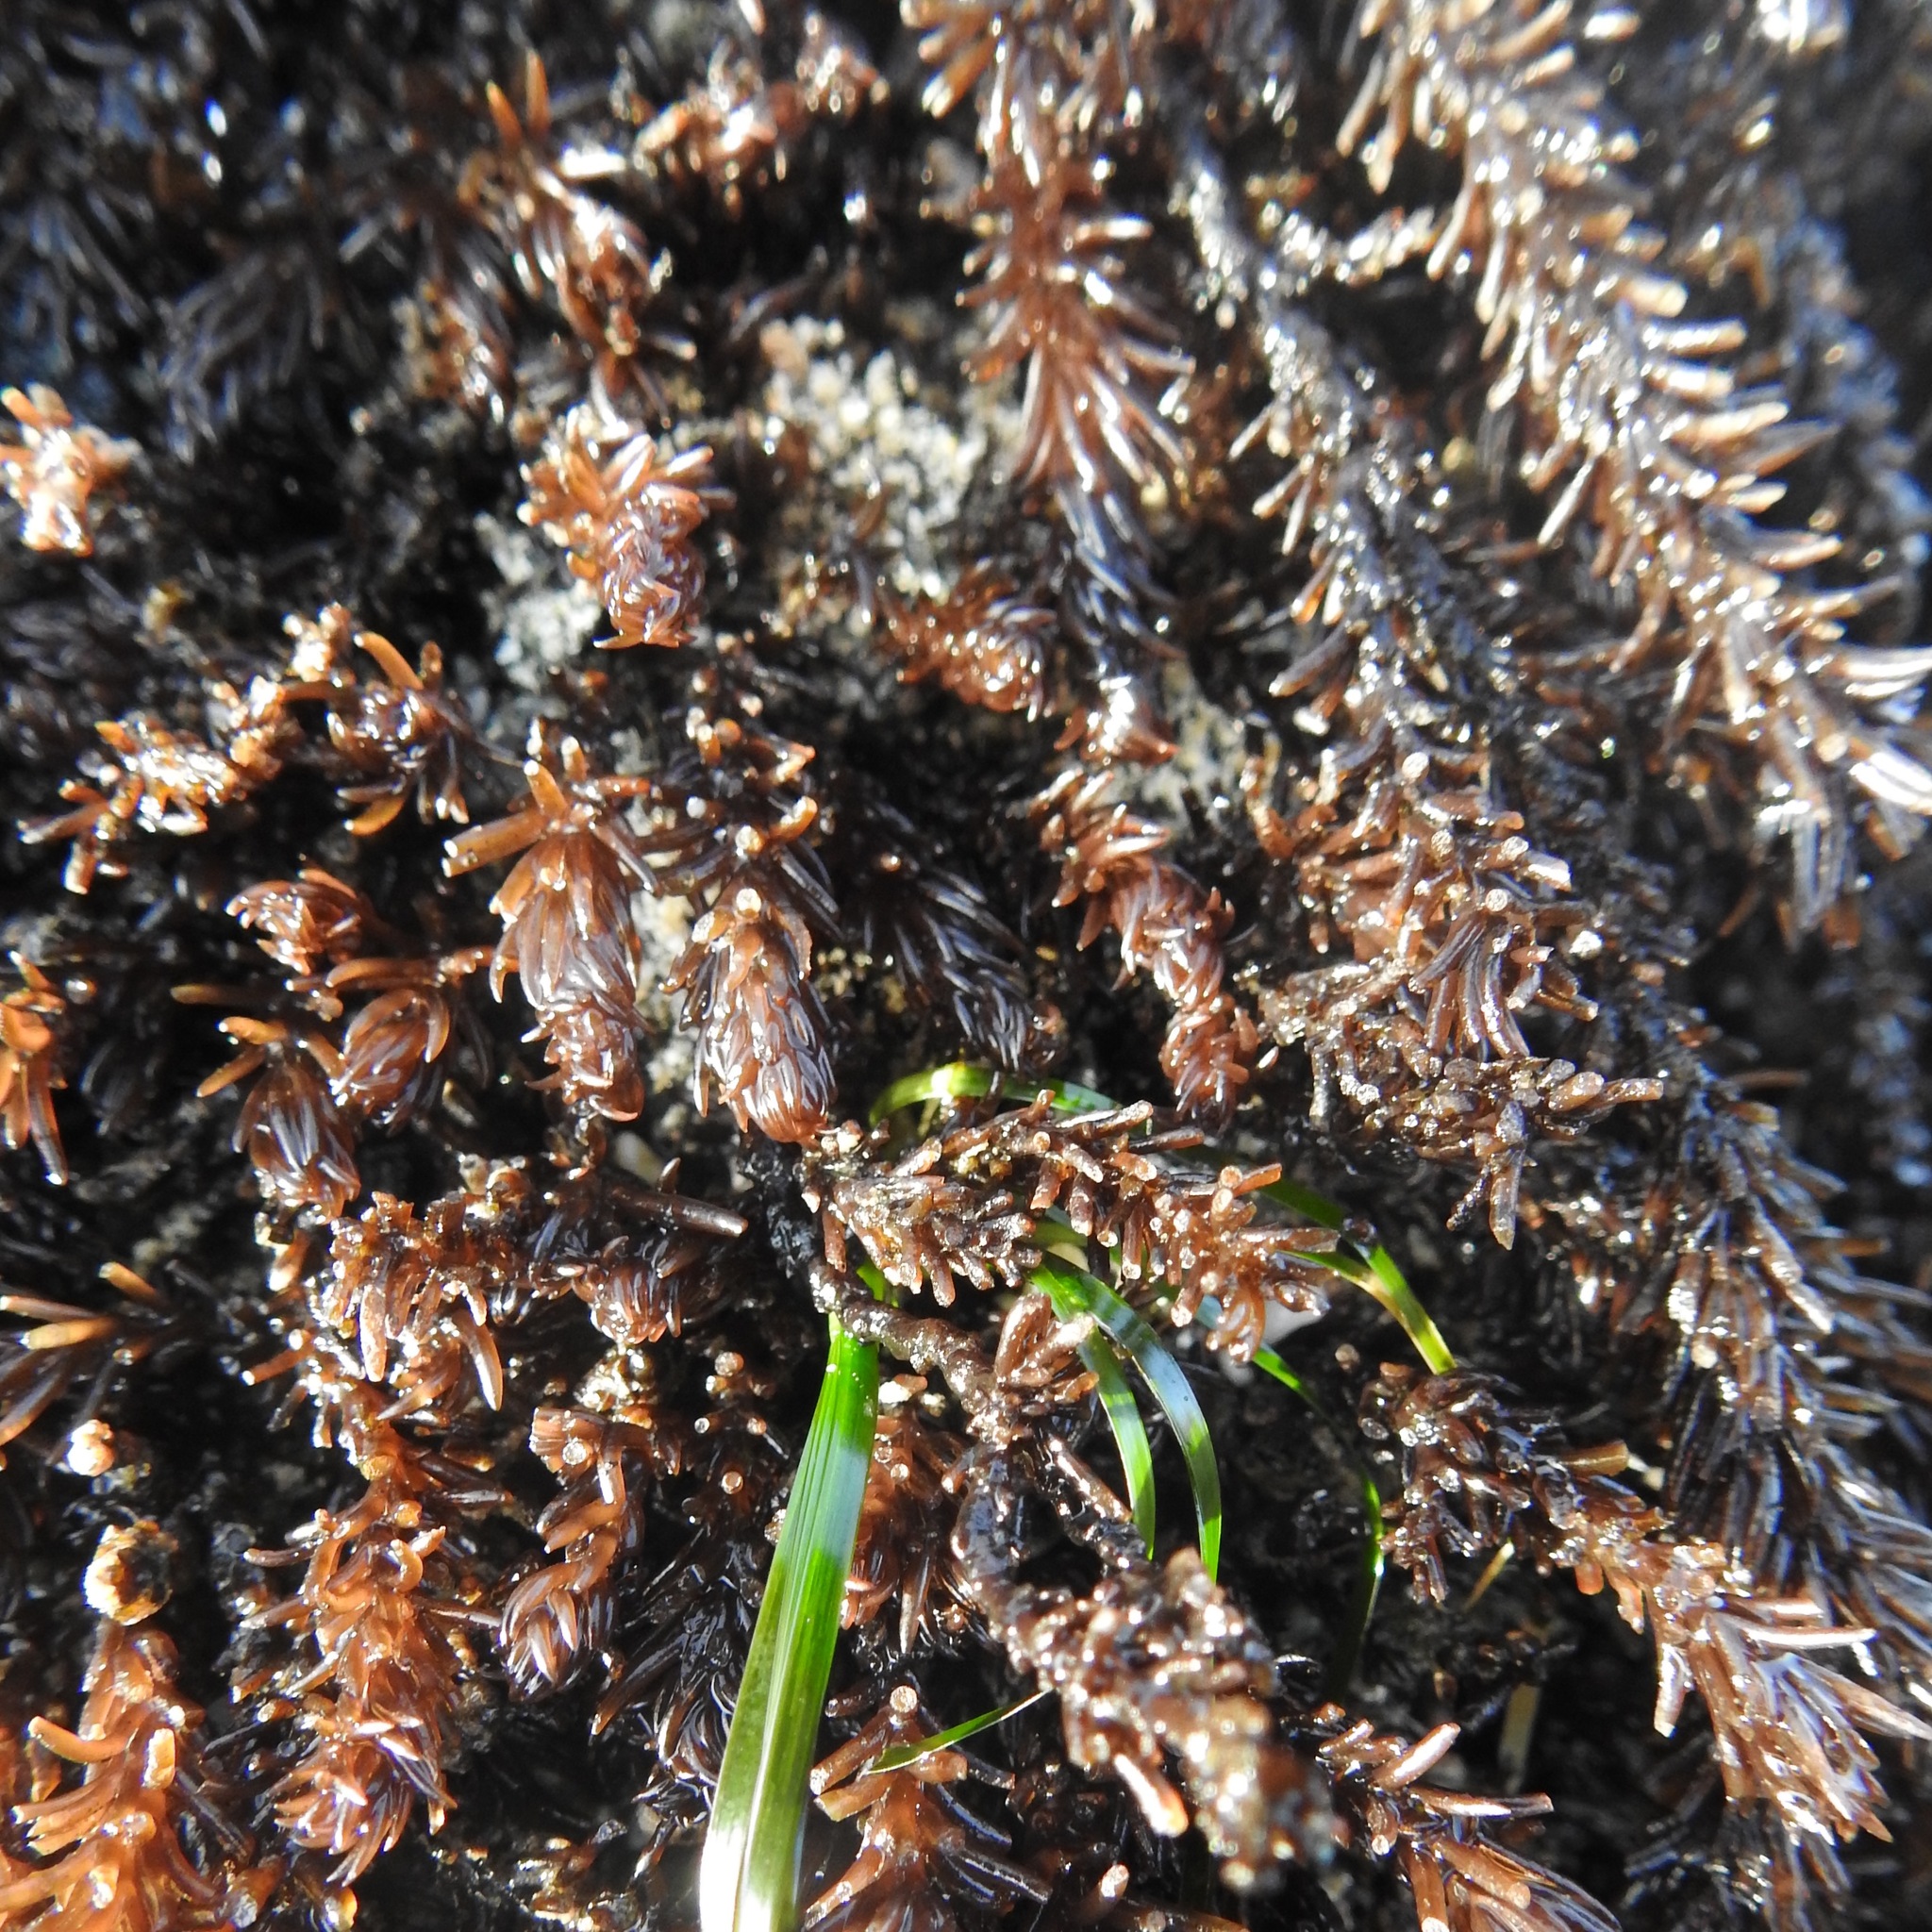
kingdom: Plantae
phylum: Rhodophyta
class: Florideophyceae
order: Ceramiales
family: Rhodomelaceae
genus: Neorhodomela
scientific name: Neorhodomela larix
